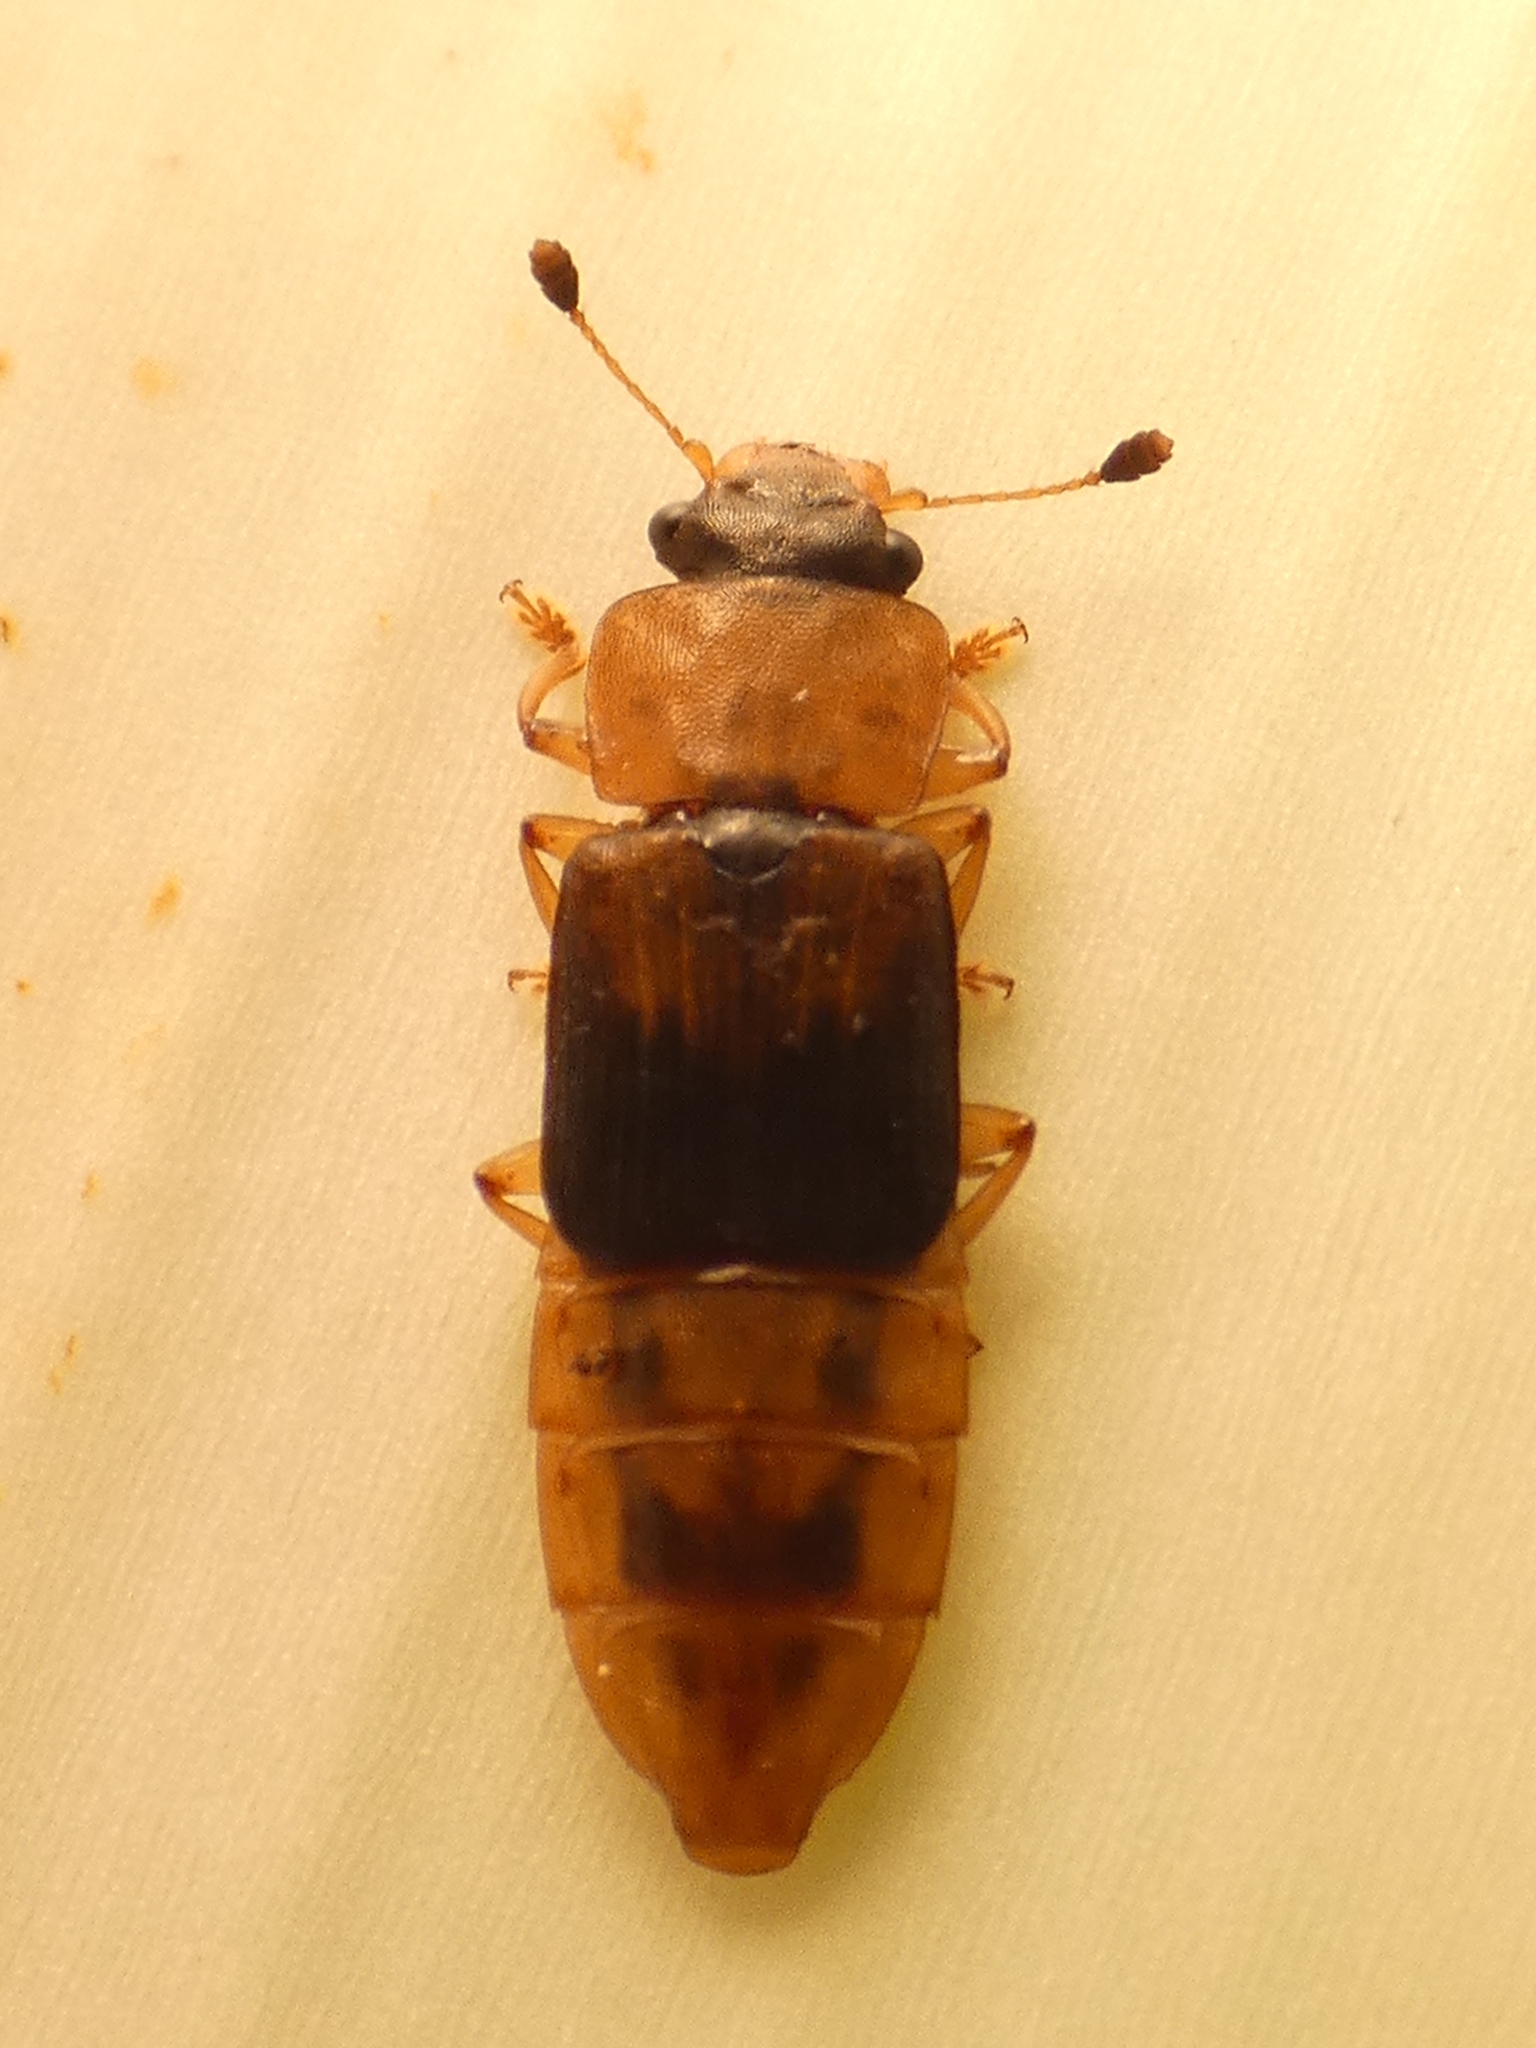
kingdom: Animalia
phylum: Arthropoda
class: Insecta
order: Coleoptera
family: Nitidulidae
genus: Brittonoma
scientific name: Brittonoma mandibulare
